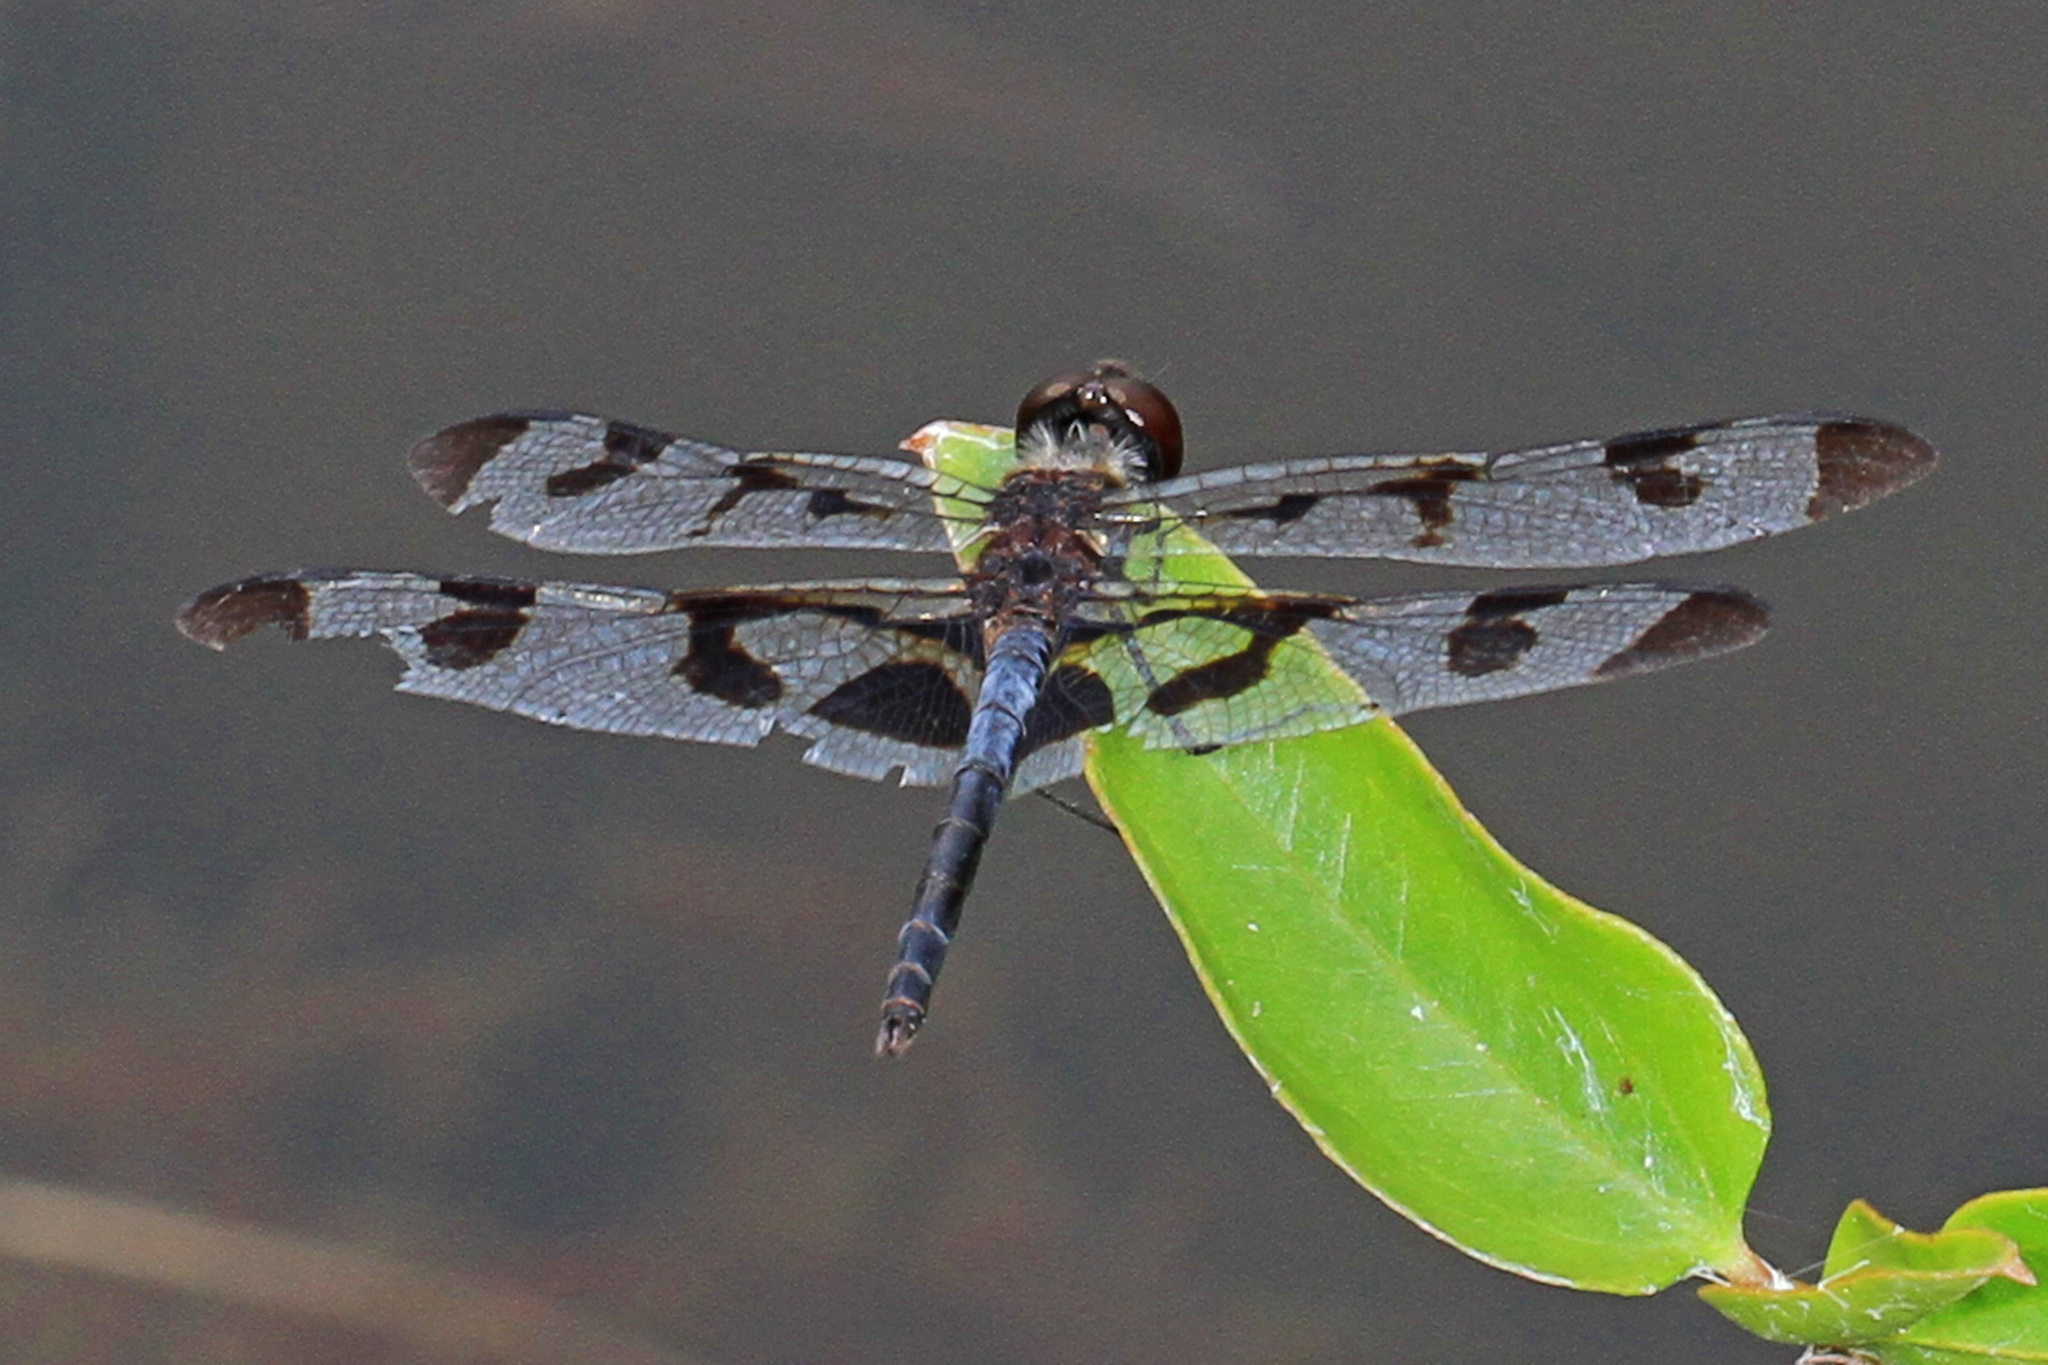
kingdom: Animalia
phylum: Arthropoda
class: Insecta
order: Odonata
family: Libellulidae
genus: Celithemis
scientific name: Celithemis fasciata
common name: Banded pennant
